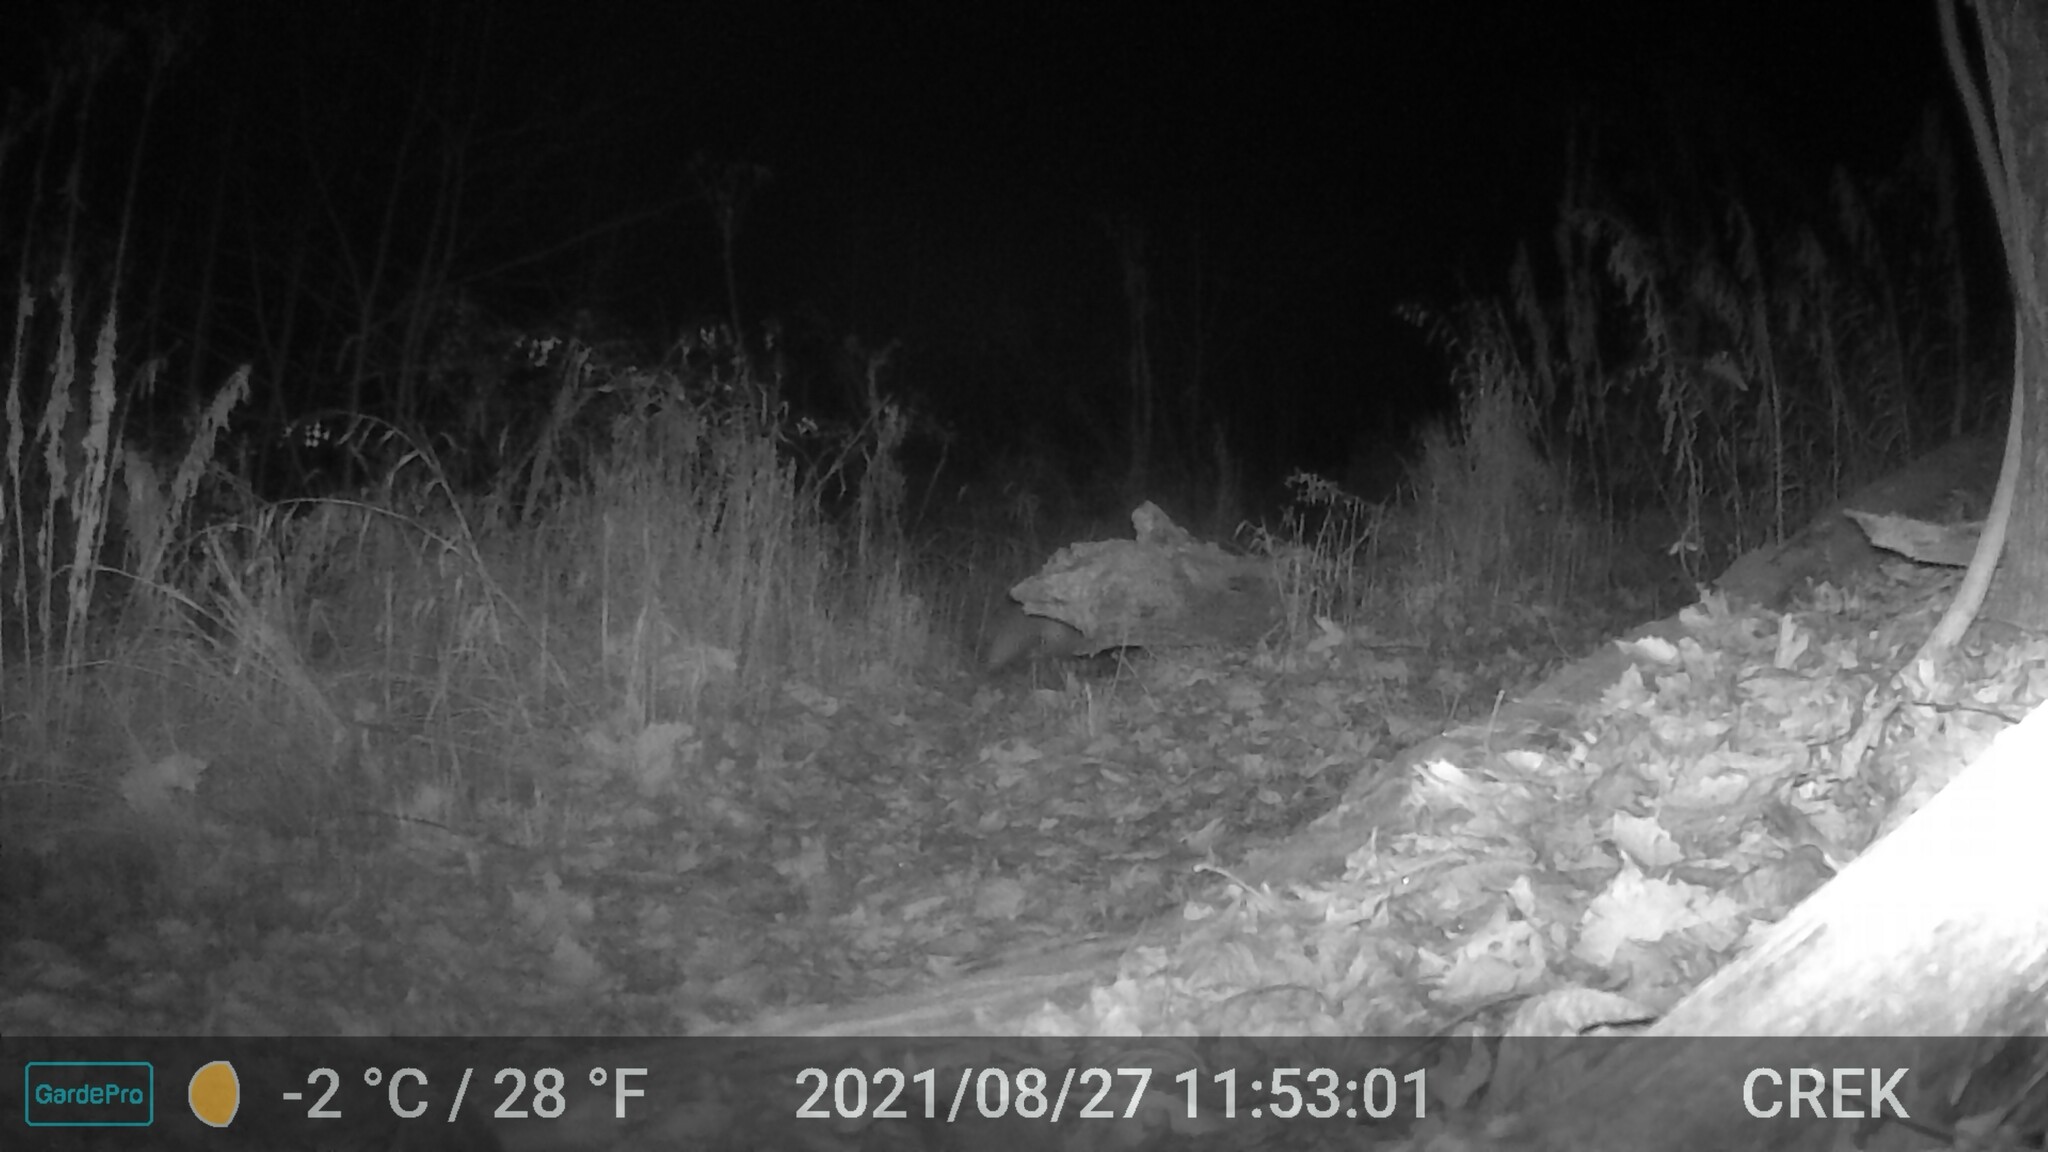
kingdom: Animalia
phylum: Chordata
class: Mammalia
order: Carnivora
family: Canidae
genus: Vulpes
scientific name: Vulpes vulpes
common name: Red fox
